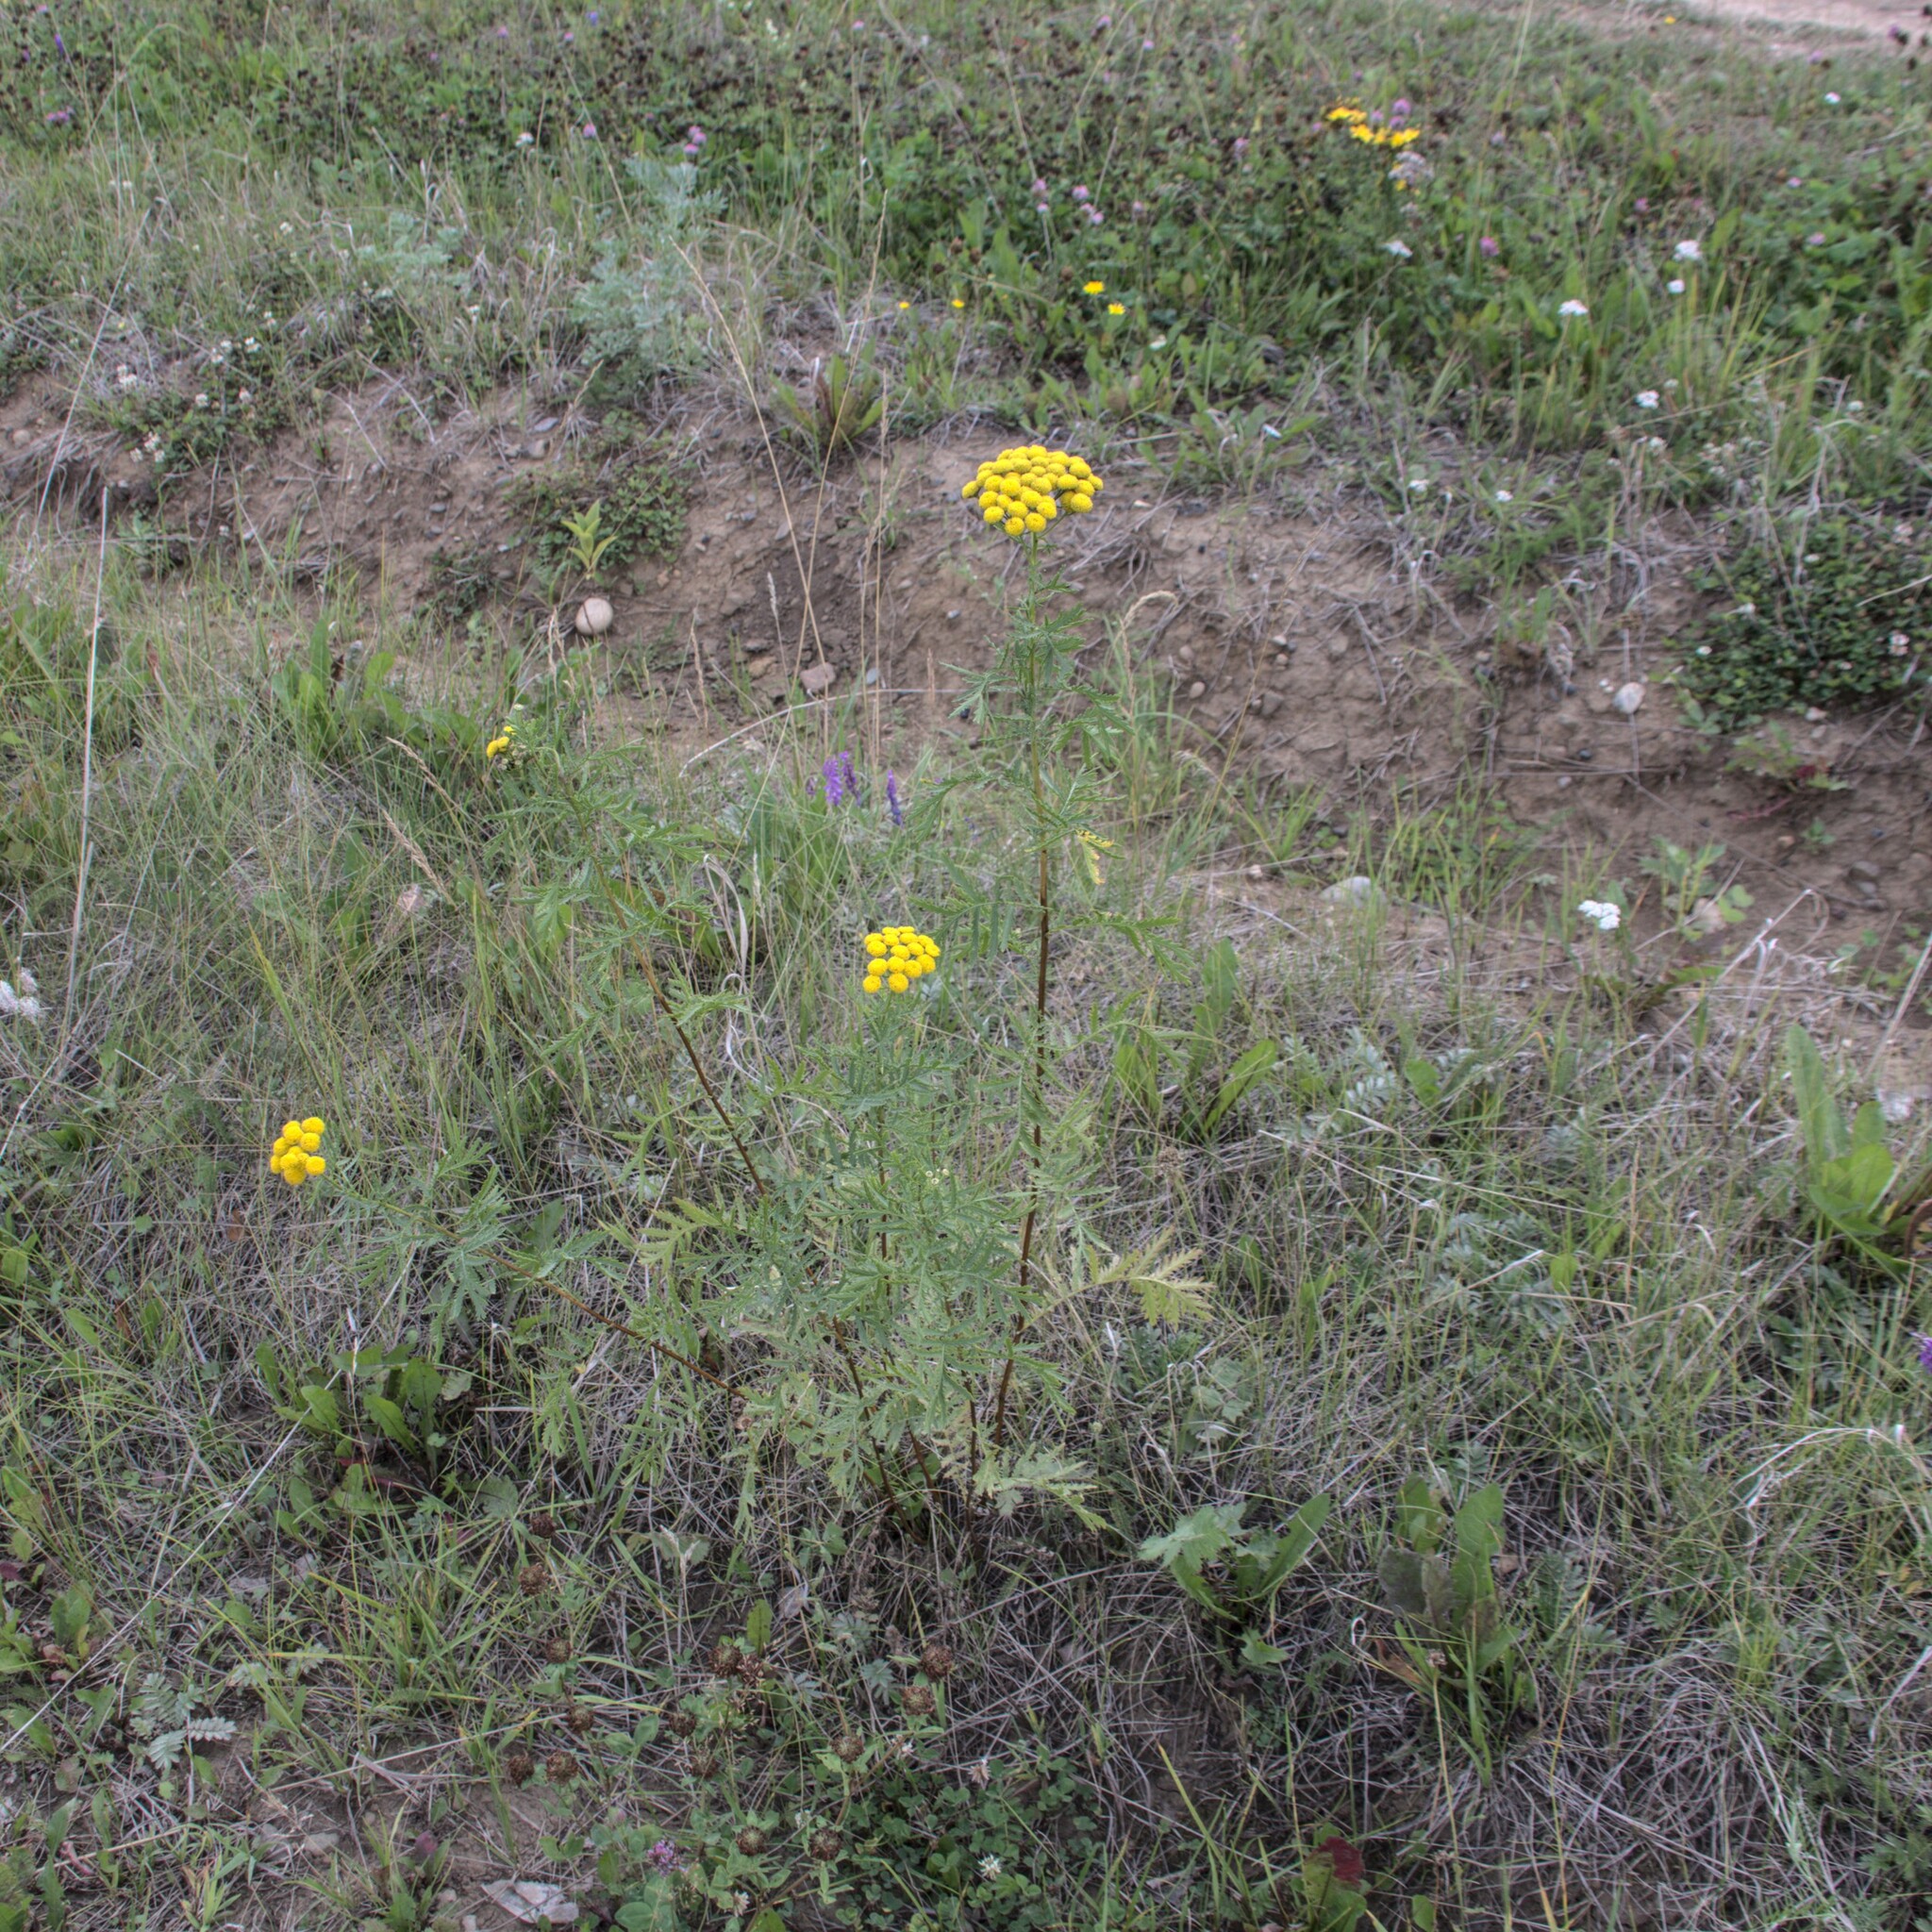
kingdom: Plantae
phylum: Tracheophyta
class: Magnoliopsida
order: Asterales
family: Asteraceae
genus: Tanacetum
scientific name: Tanacetum vulgare
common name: Common tansy
